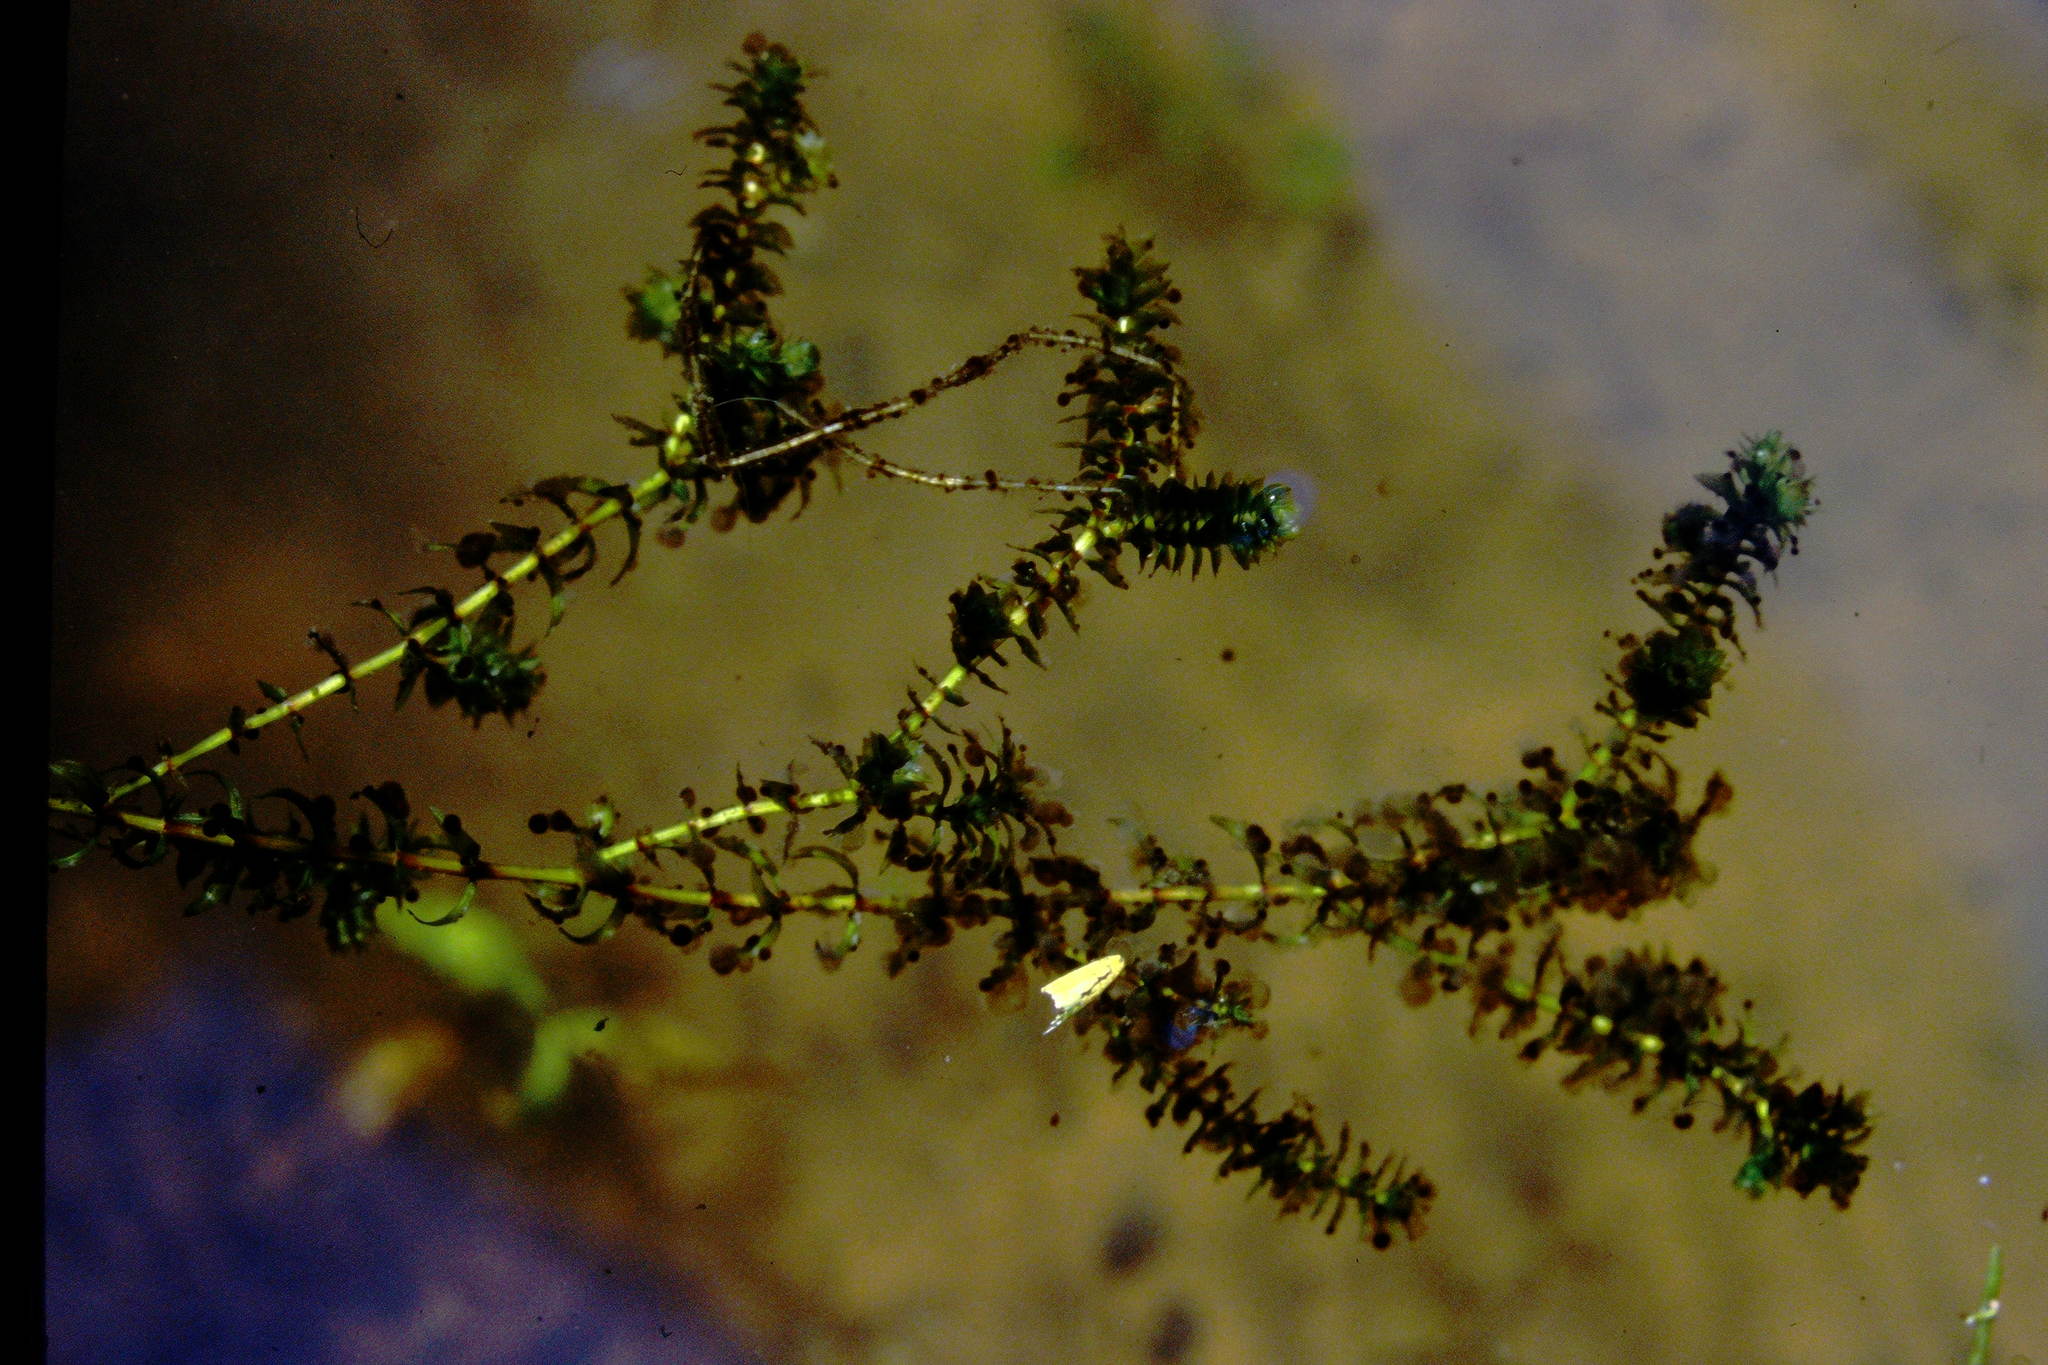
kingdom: Plantae
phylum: Tracheophyta
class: Liliopsida
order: Alismatales
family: Hydrocharitaceae
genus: Elodea
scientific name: Elodea canadensis
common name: Canadian waterweed
